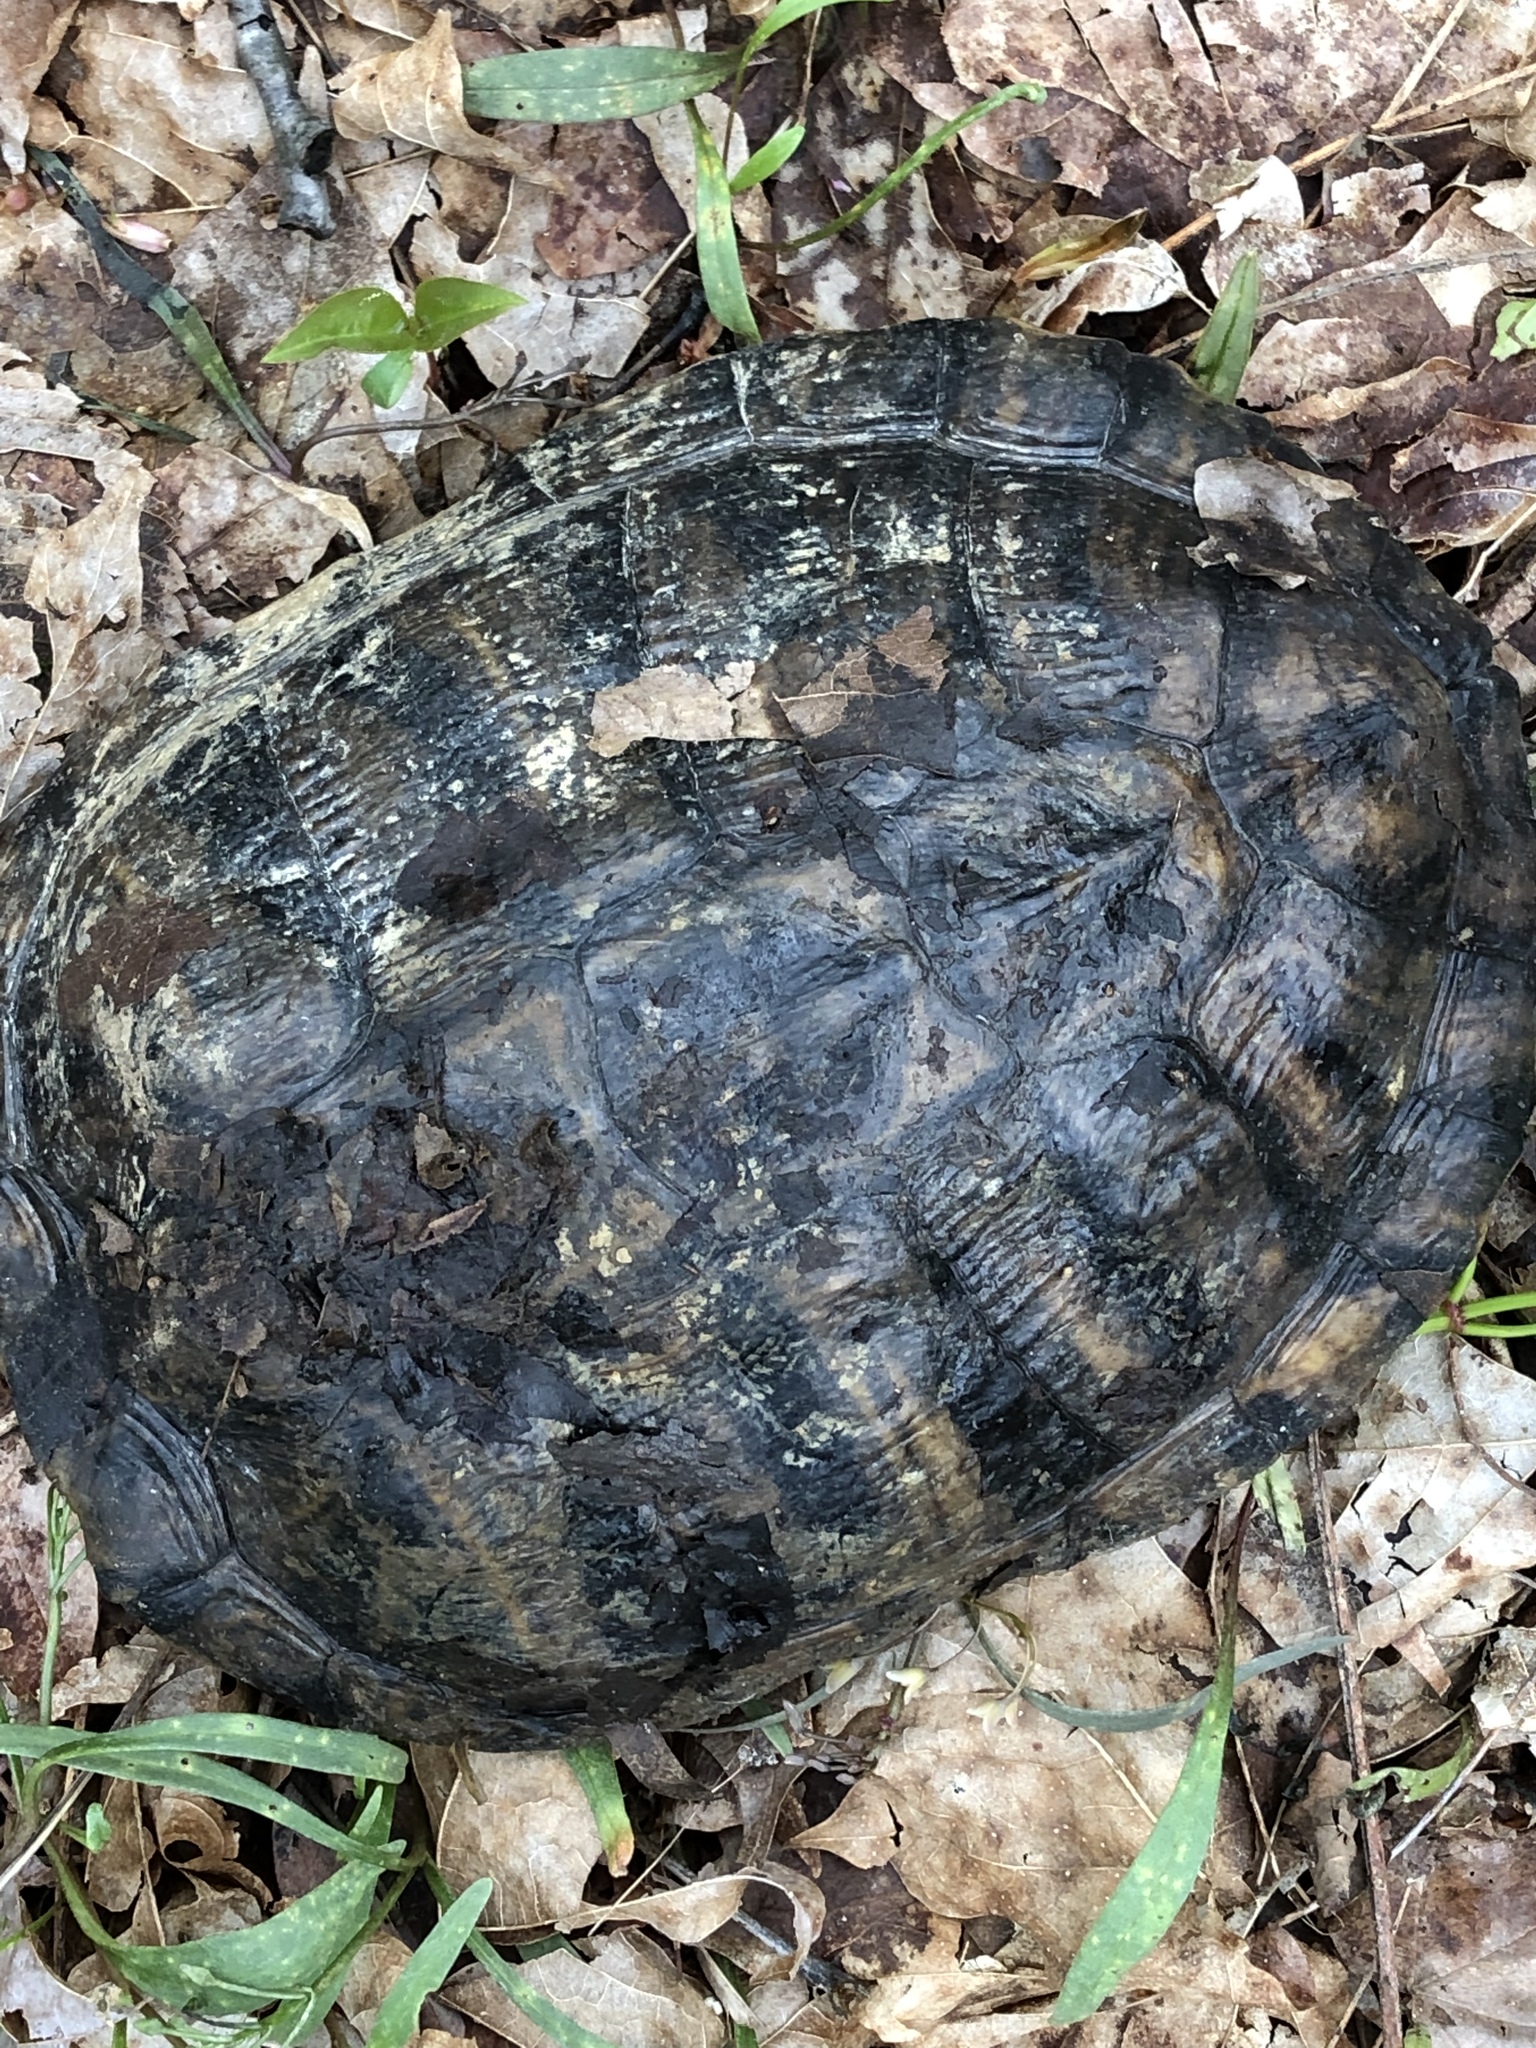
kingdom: Animalia
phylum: Chordata
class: Testudines
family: Emydidae
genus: Trachemys
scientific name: Trachemys scripta
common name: Slider
